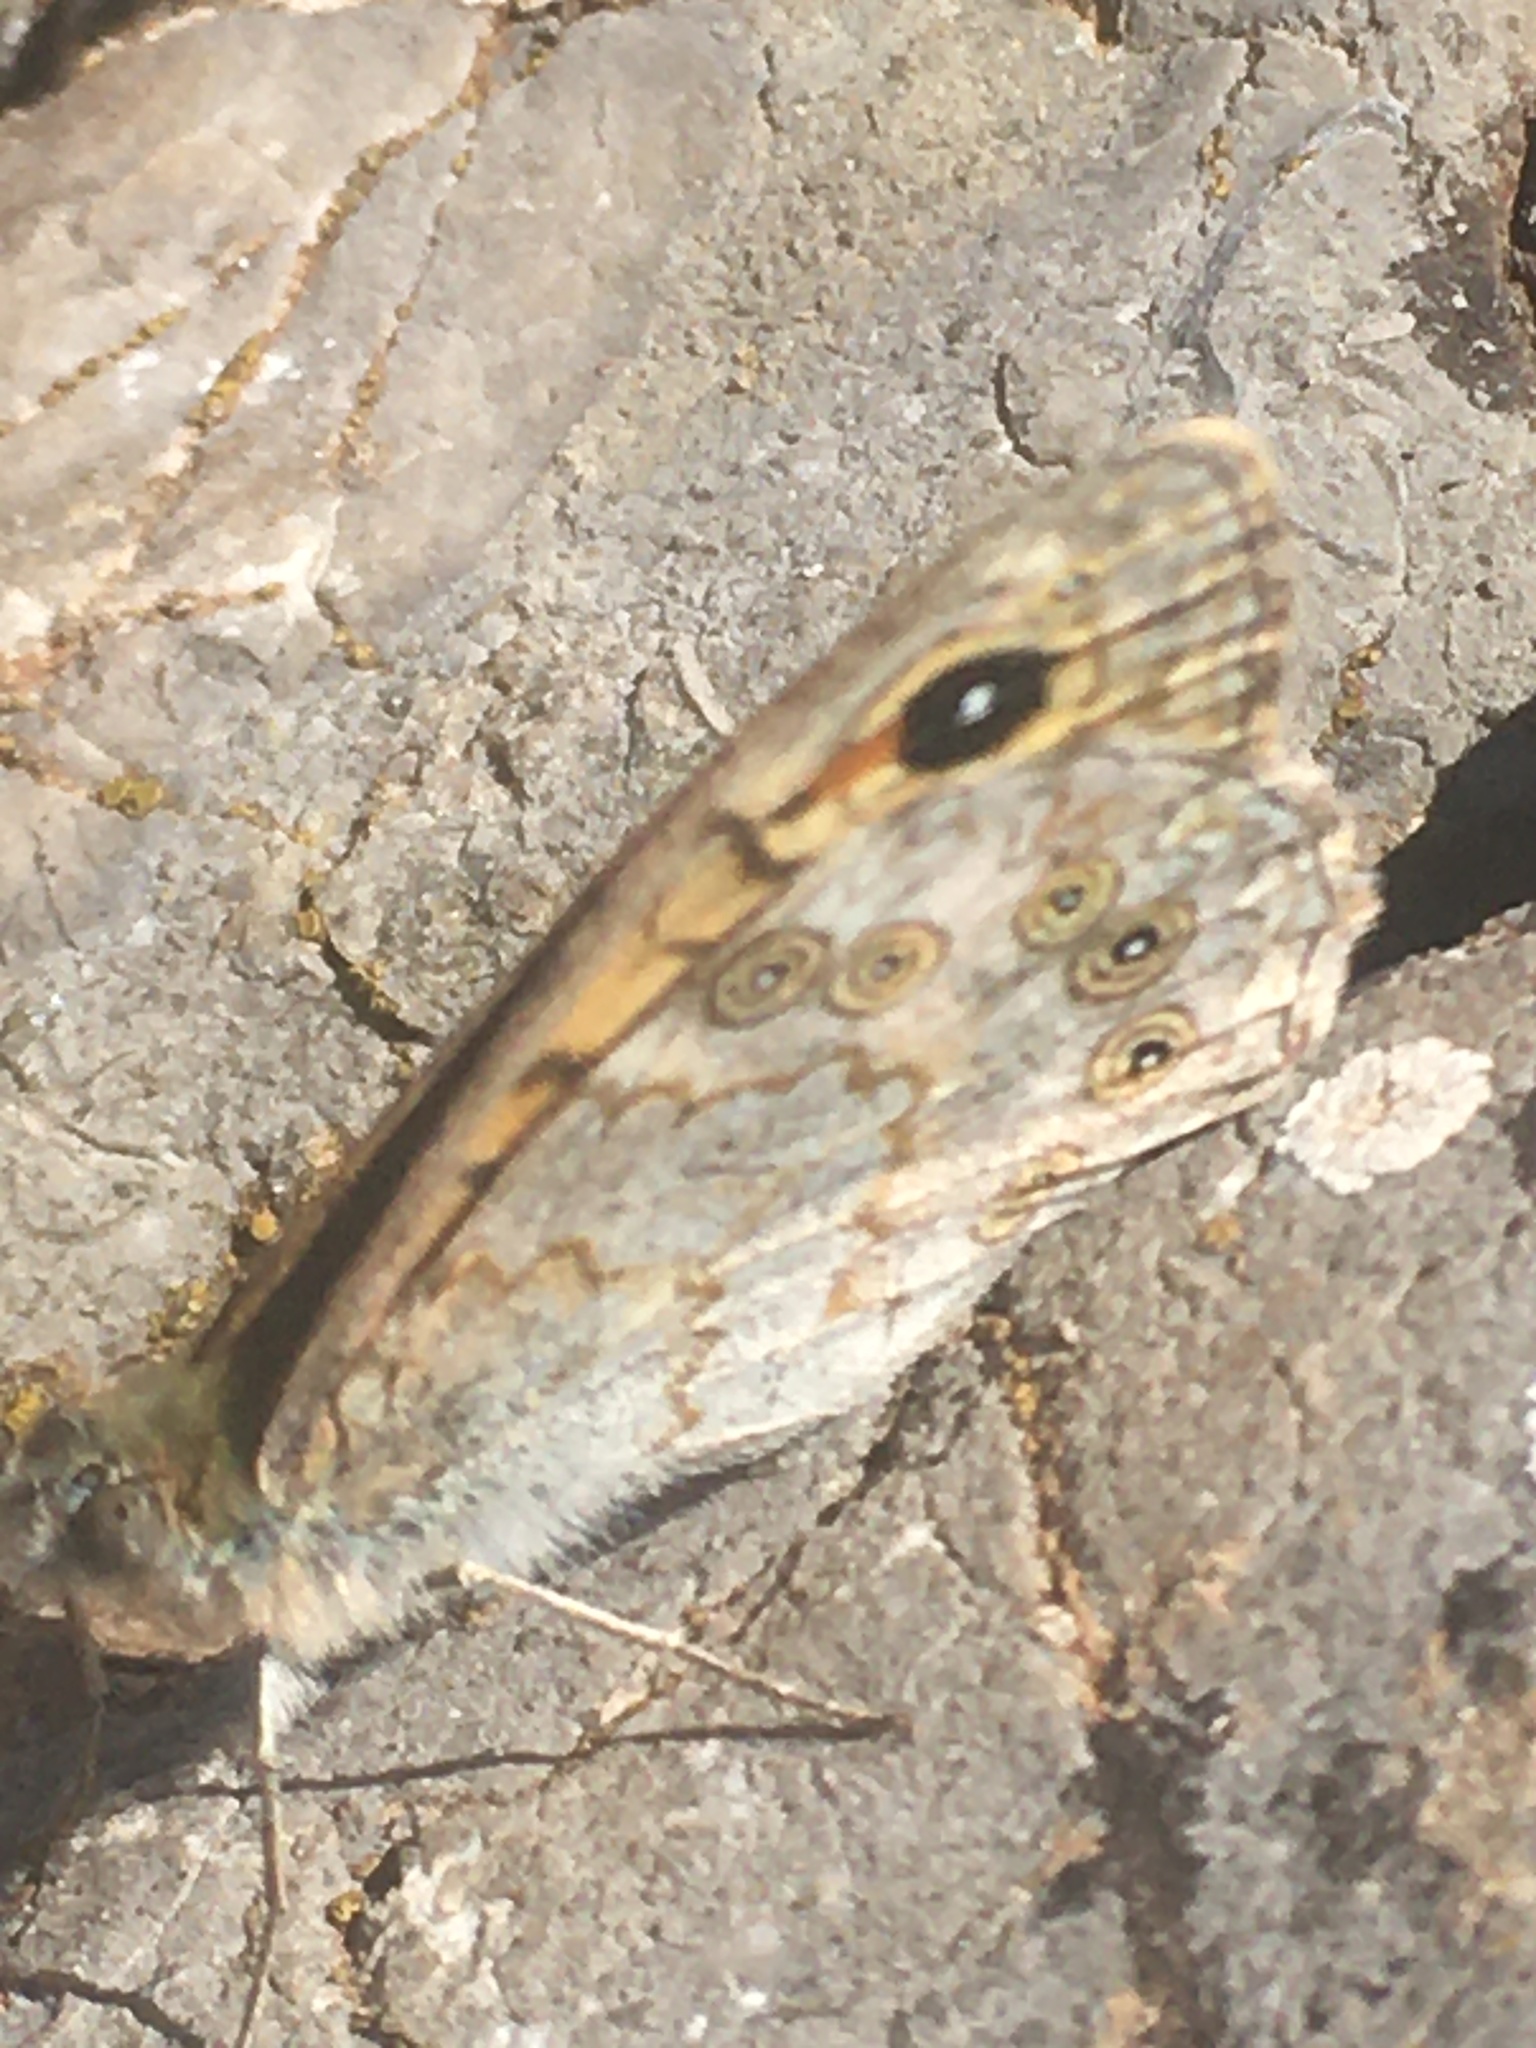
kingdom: Animalia
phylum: Arthropoda
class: Insecta
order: Lepidoptera
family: Nymphalidae
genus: Pararge
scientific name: Pararge Lasiommata megera
